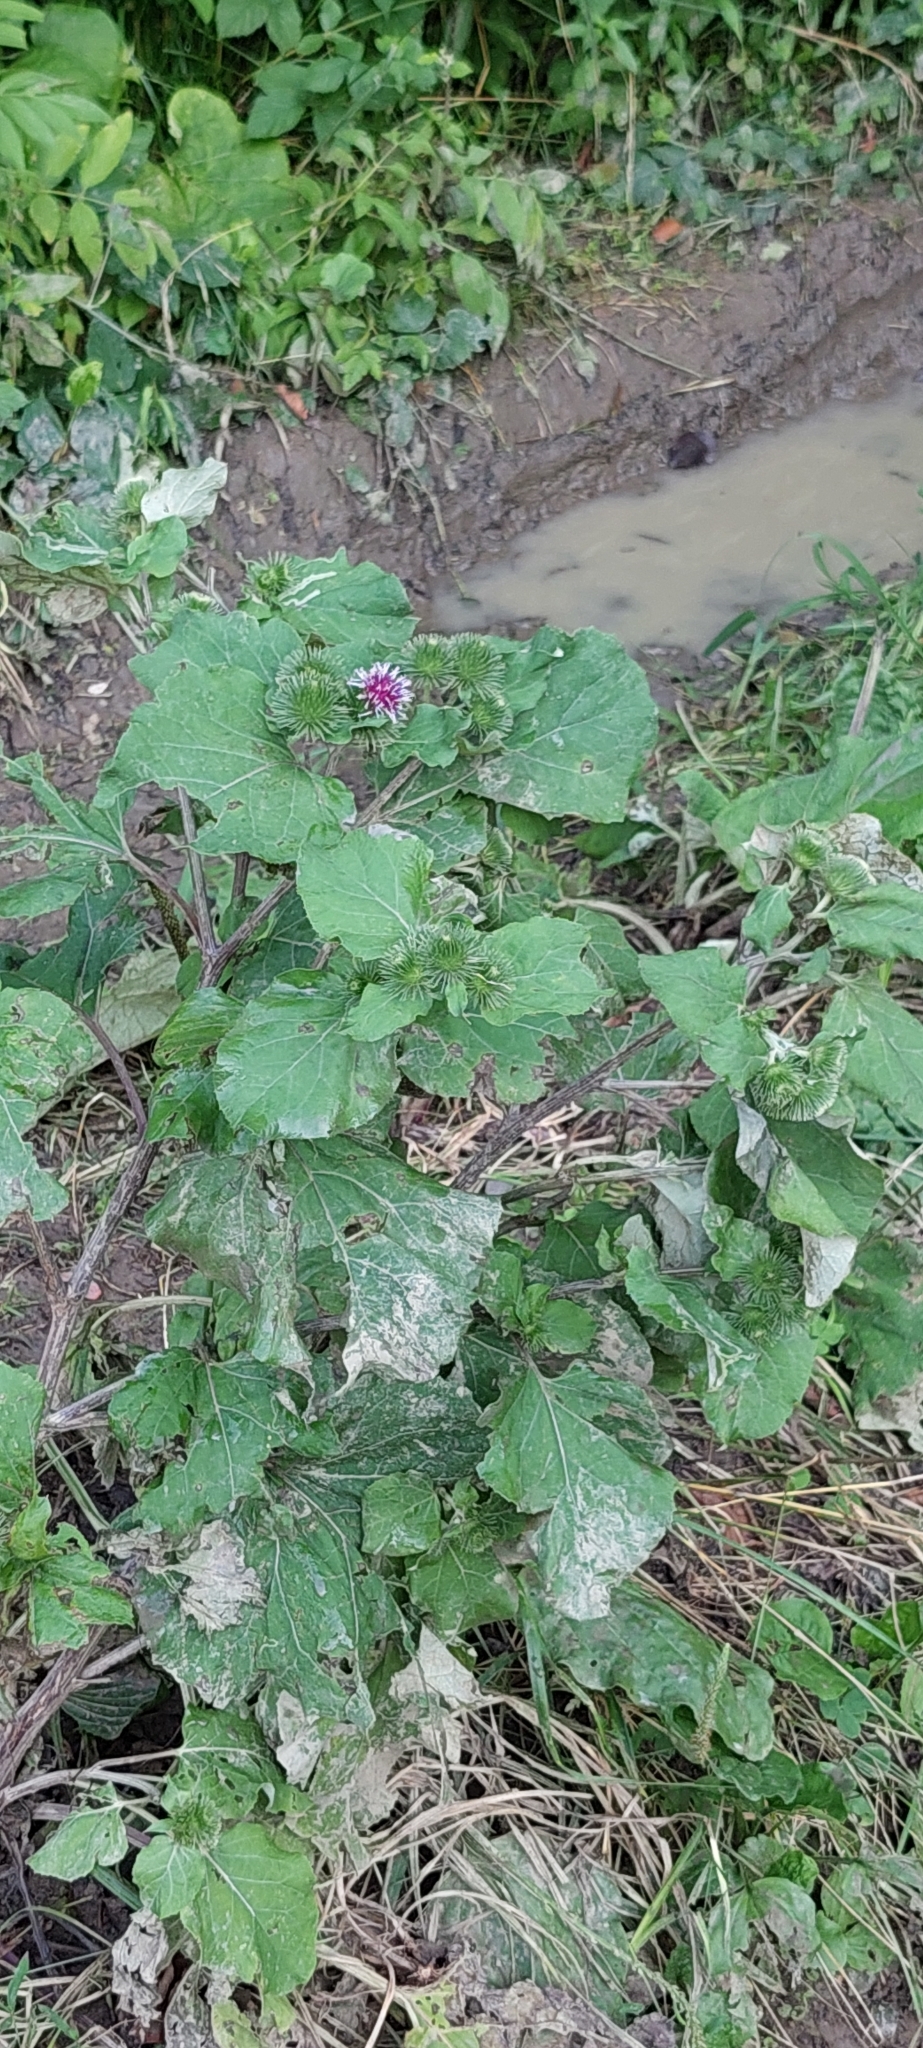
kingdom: Plantae
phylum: Tracheophyta
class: Magnoliopsida
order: Asterales
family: Asteraceae
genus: Arctium
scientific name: Arctium lappa
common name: Greater burdock
